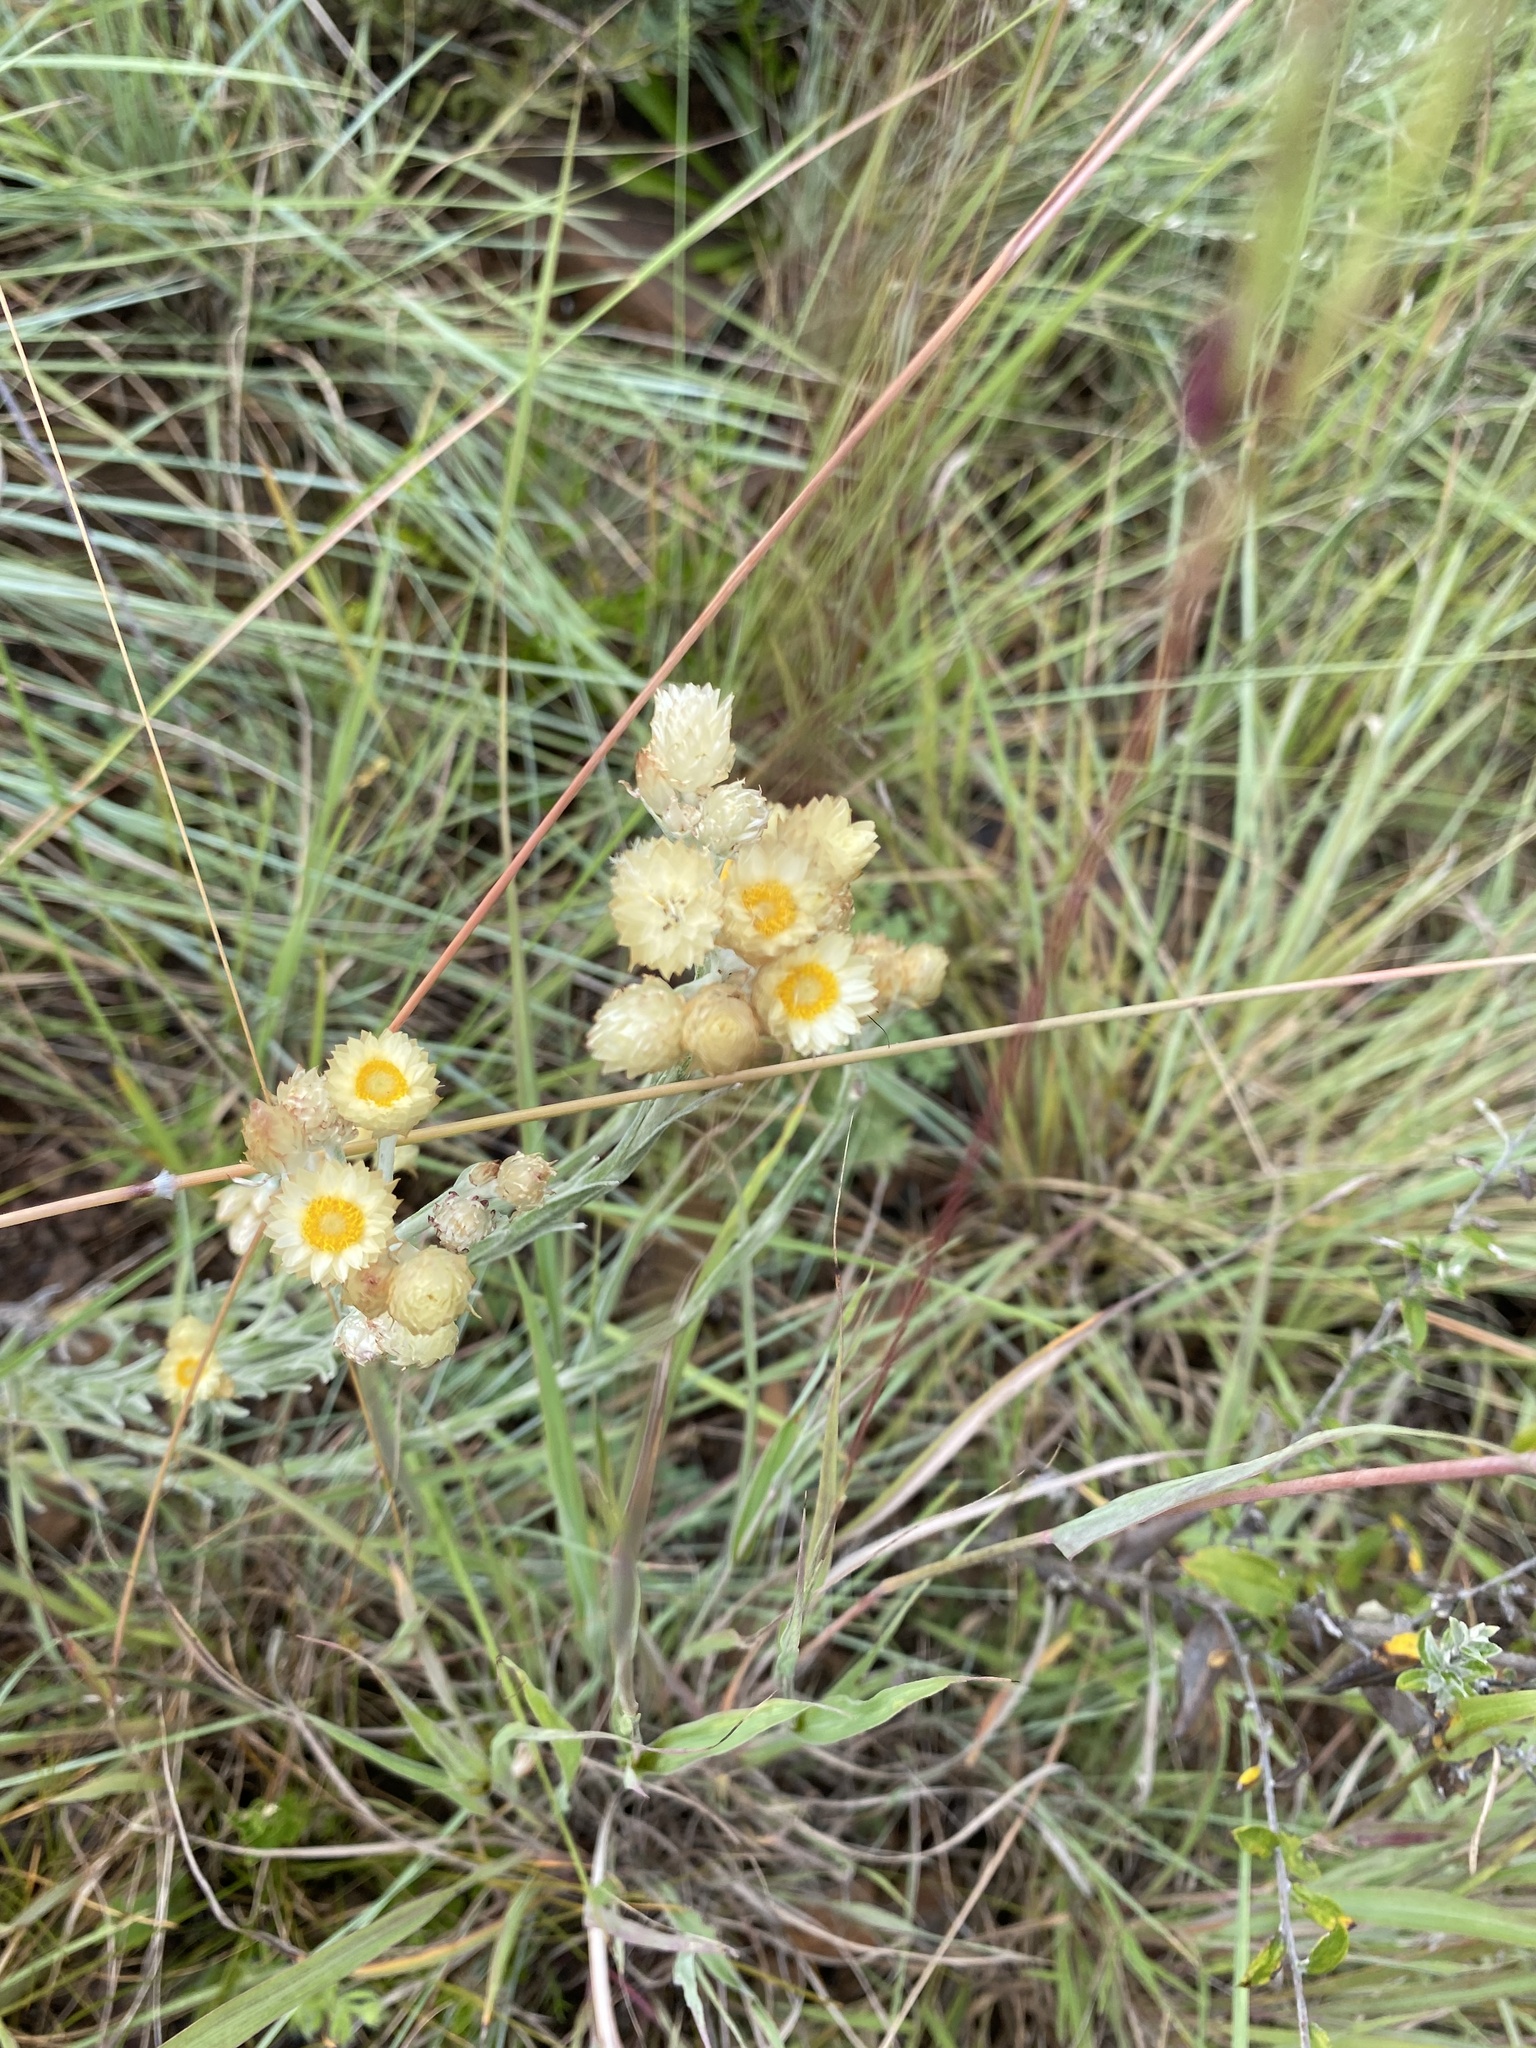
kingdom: Plantae
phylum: Tracheophyta
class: Magnoliopsida
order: Asterales
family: Asteraceae
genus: Helichrysum
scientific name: Helichrysum mixtum
